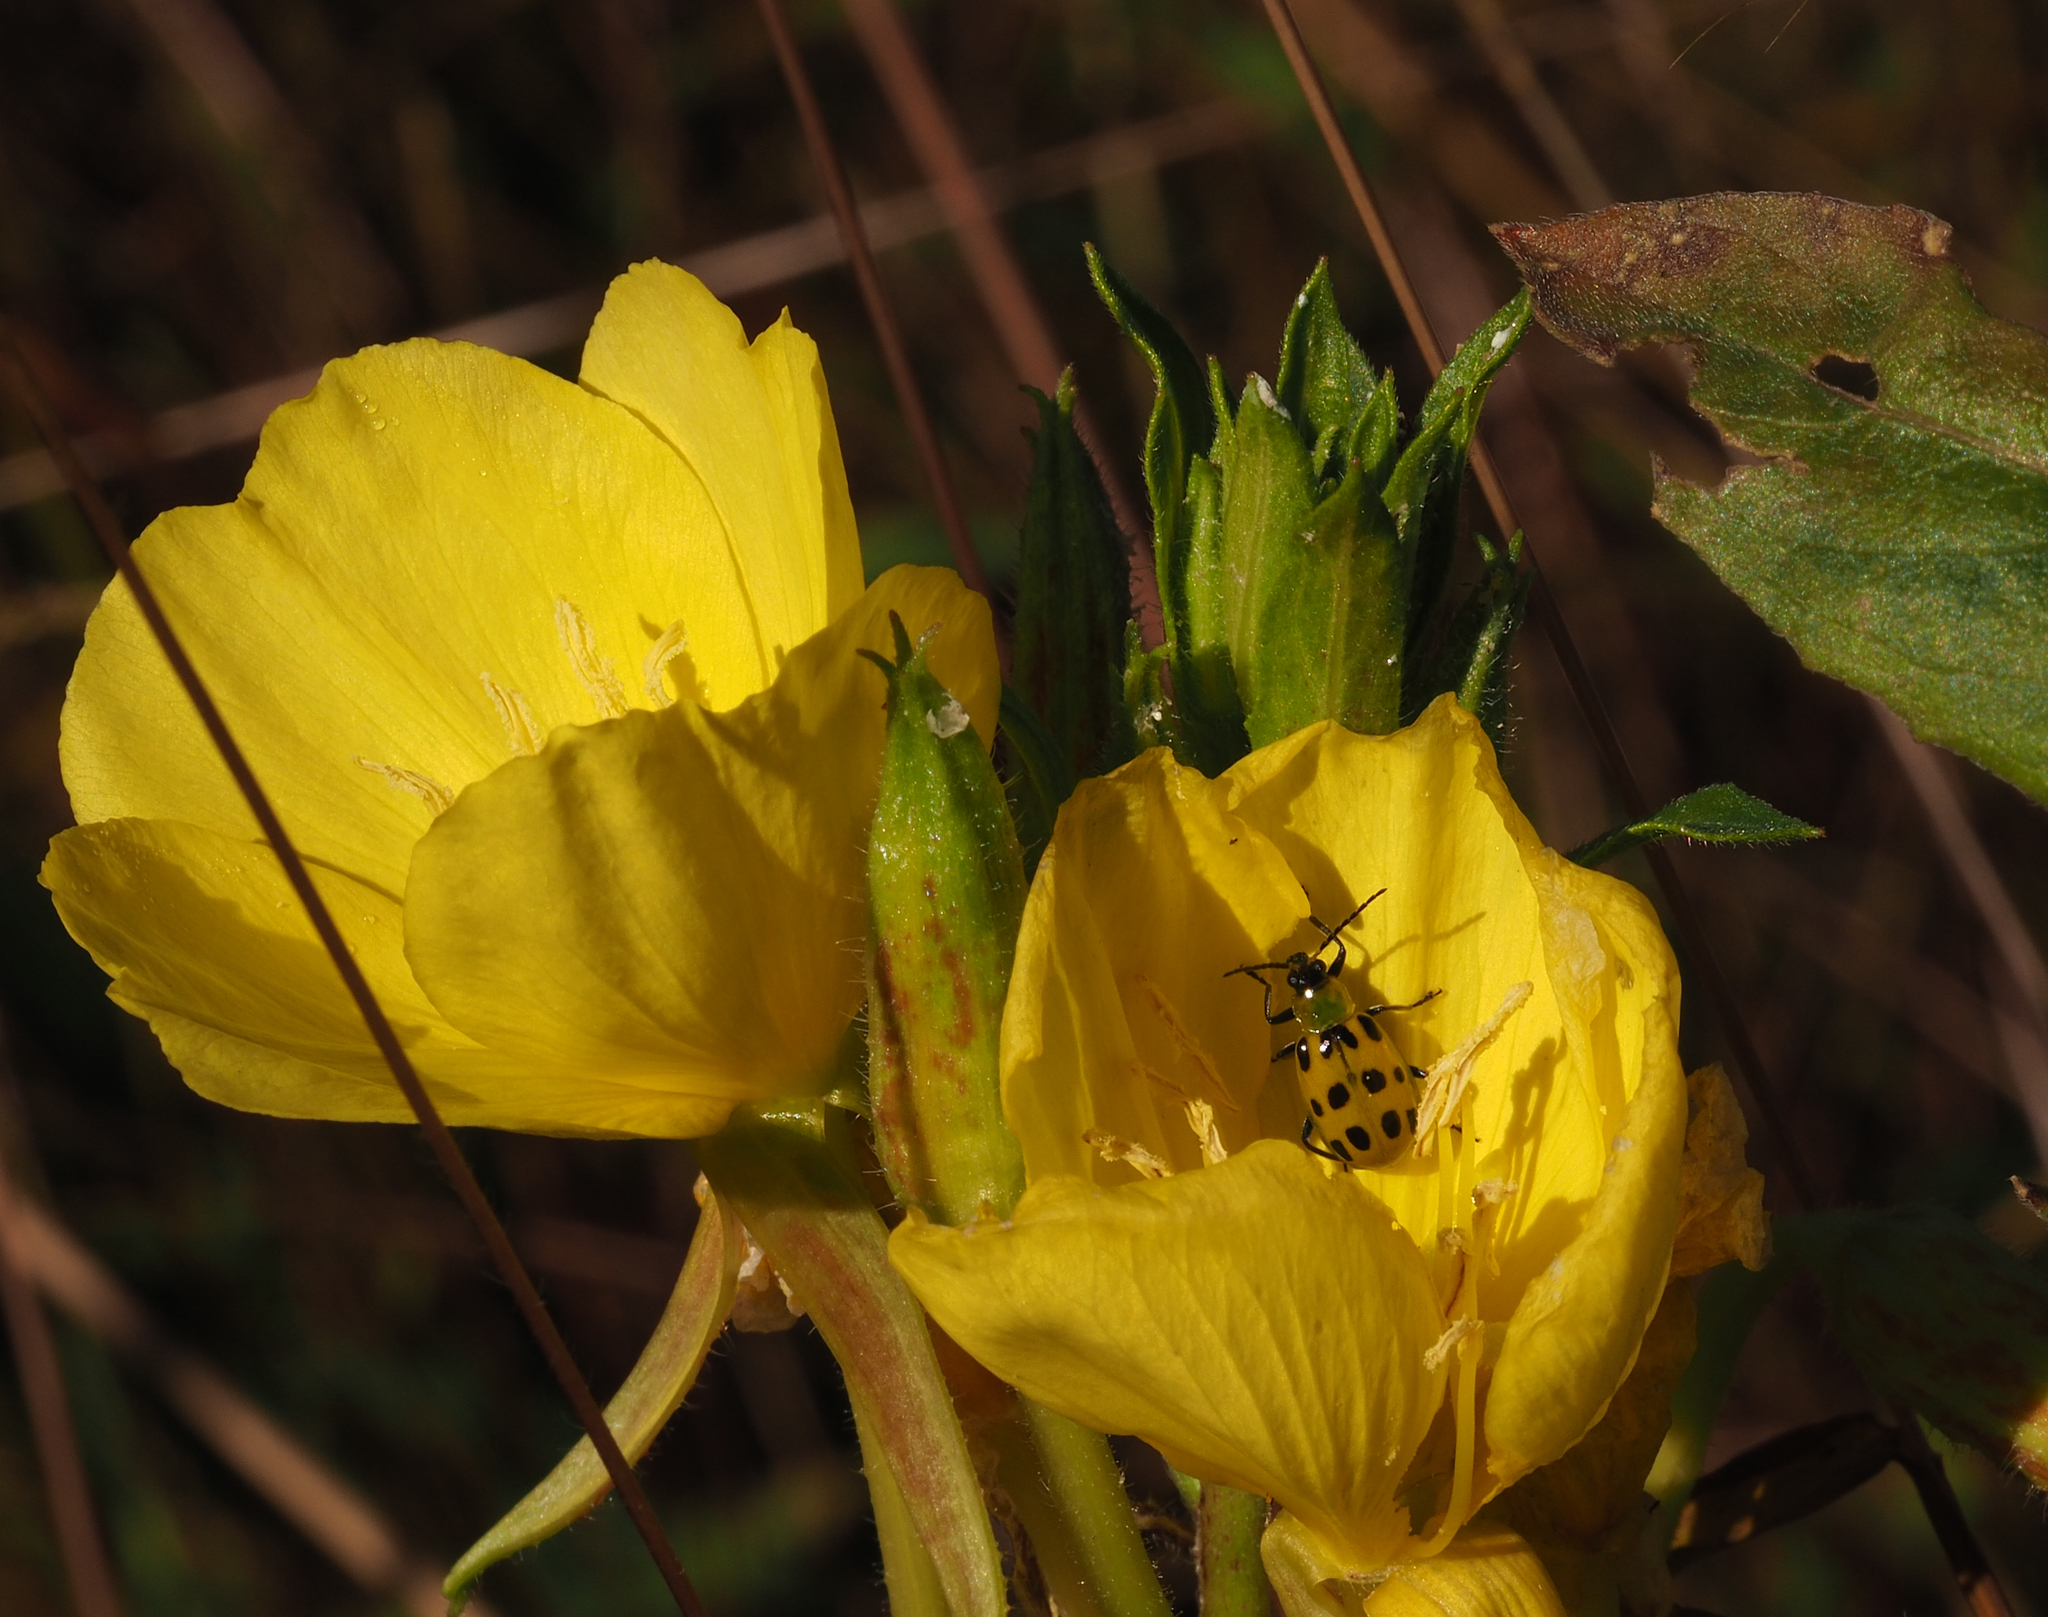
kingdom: Animalia
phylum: Arthropoda
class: Insecta
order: Coleoptera
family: Chrysomelidae
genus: Diabrotica
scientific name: Diabrotica undecimpunctata
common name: Spotted cucumber beetle
